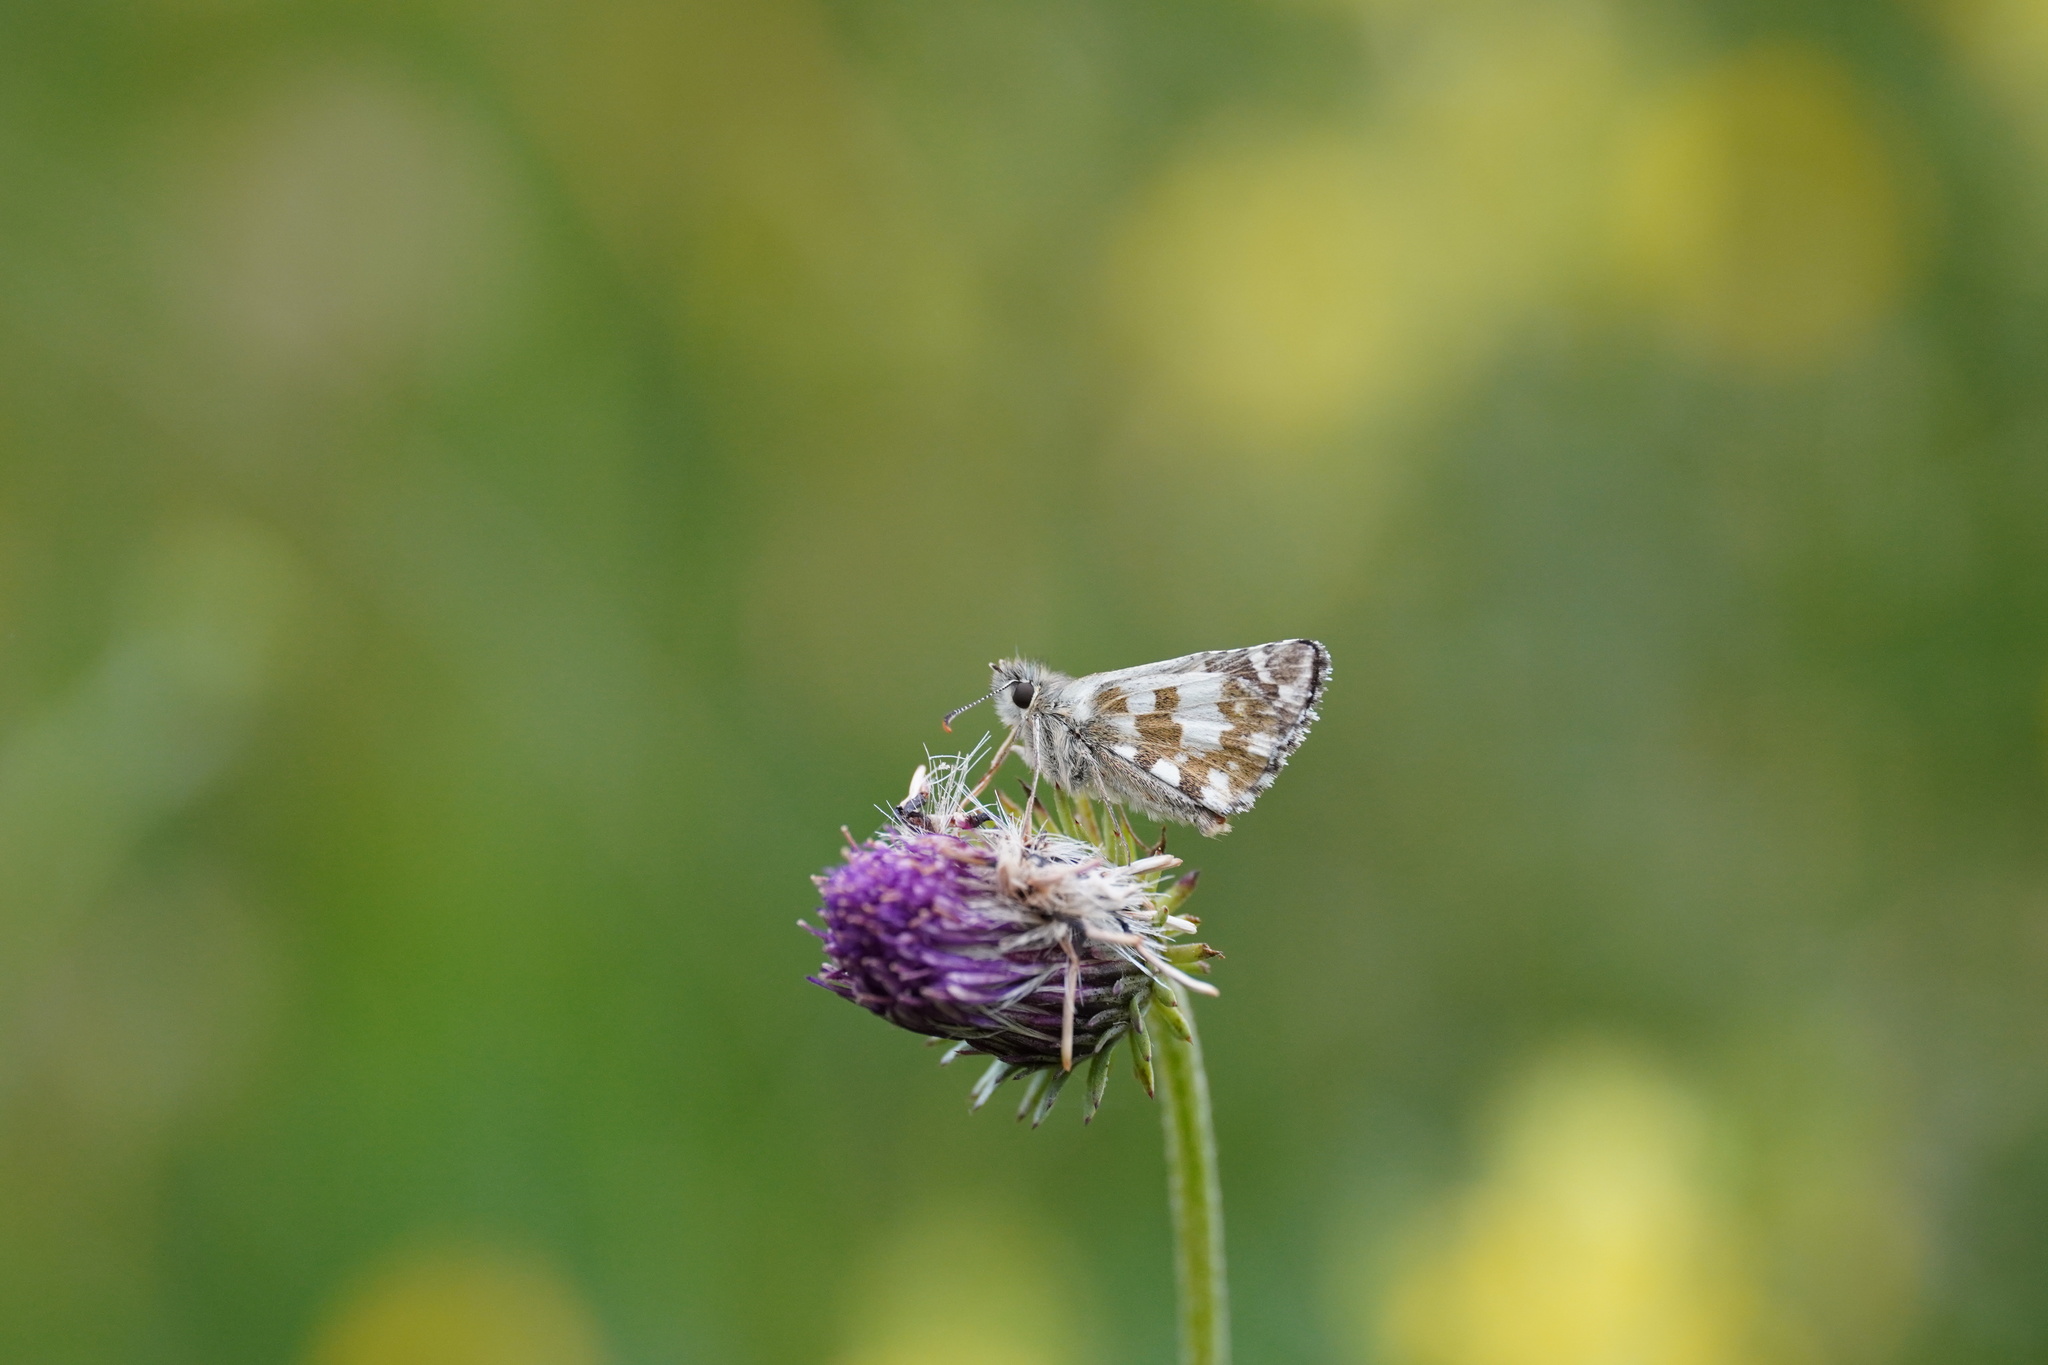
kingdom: Animalia
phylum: Arthropoda
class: Insecta
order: Lepidoptera
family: Hesperiidae
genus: Pyrgus
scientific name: Pyrgus alveus
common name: Large grizzled skipper
